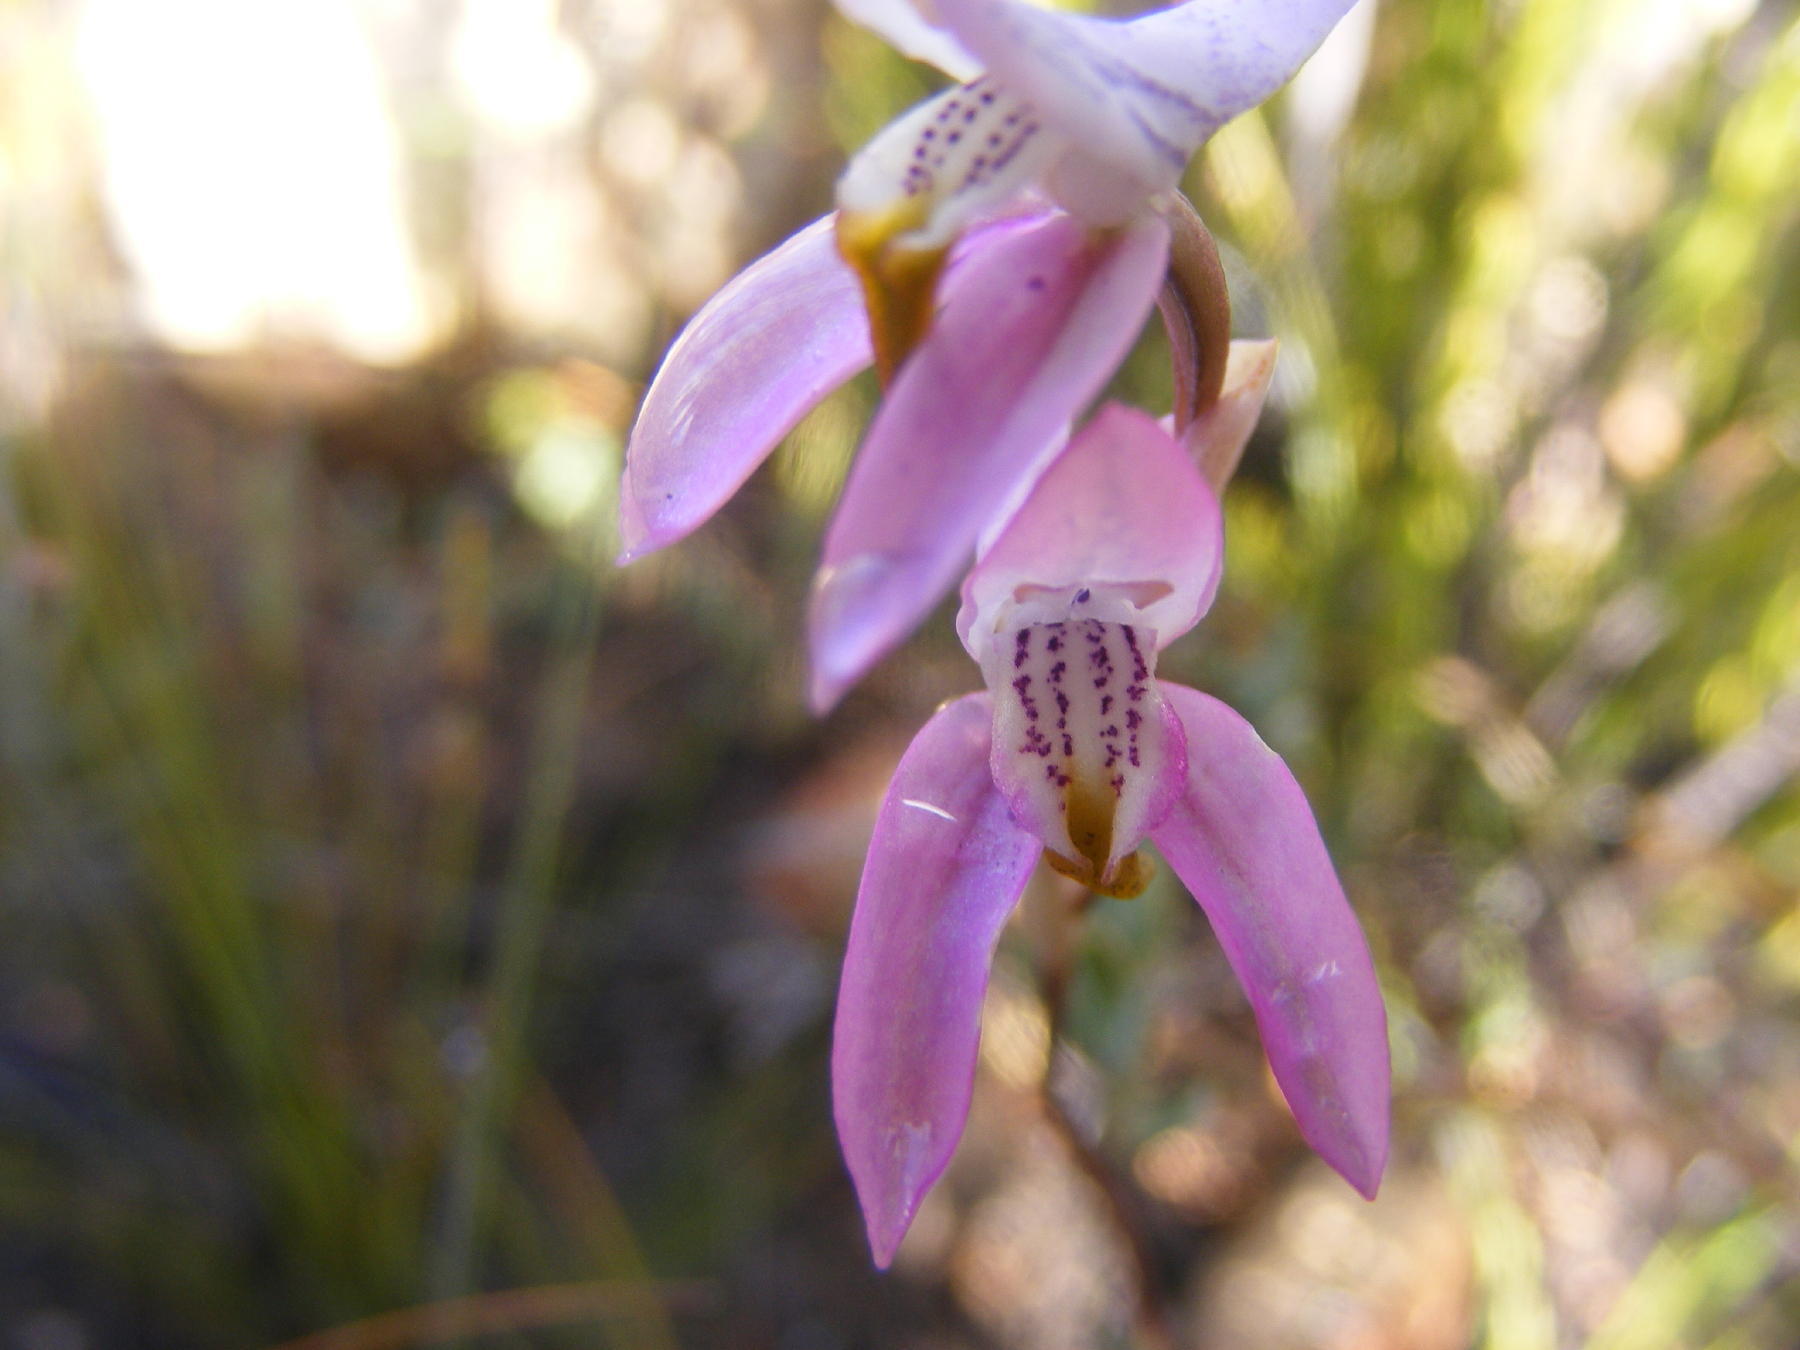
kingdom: Plantae
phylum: Tracheophyta
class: Liliopsida
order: Asparagales
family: Orchidaceae
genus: Disa
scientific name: Disa bifida
